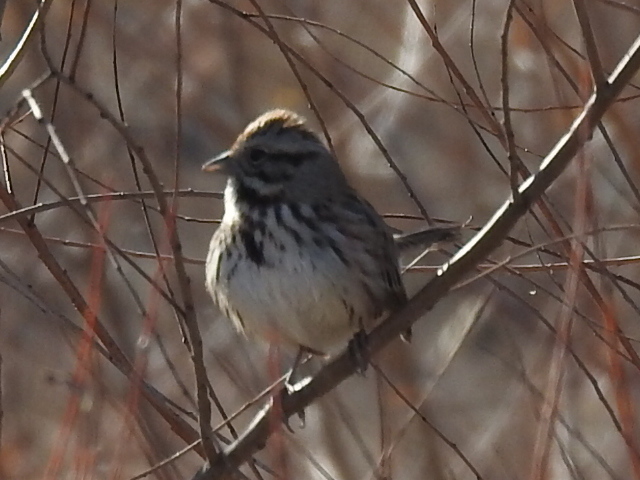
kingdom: Animalia
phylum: Chordata
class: Aves
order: Passeriformes
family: Passerellidae
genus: Melospiza
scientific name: Melospiza melodia
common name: Song sparrow
